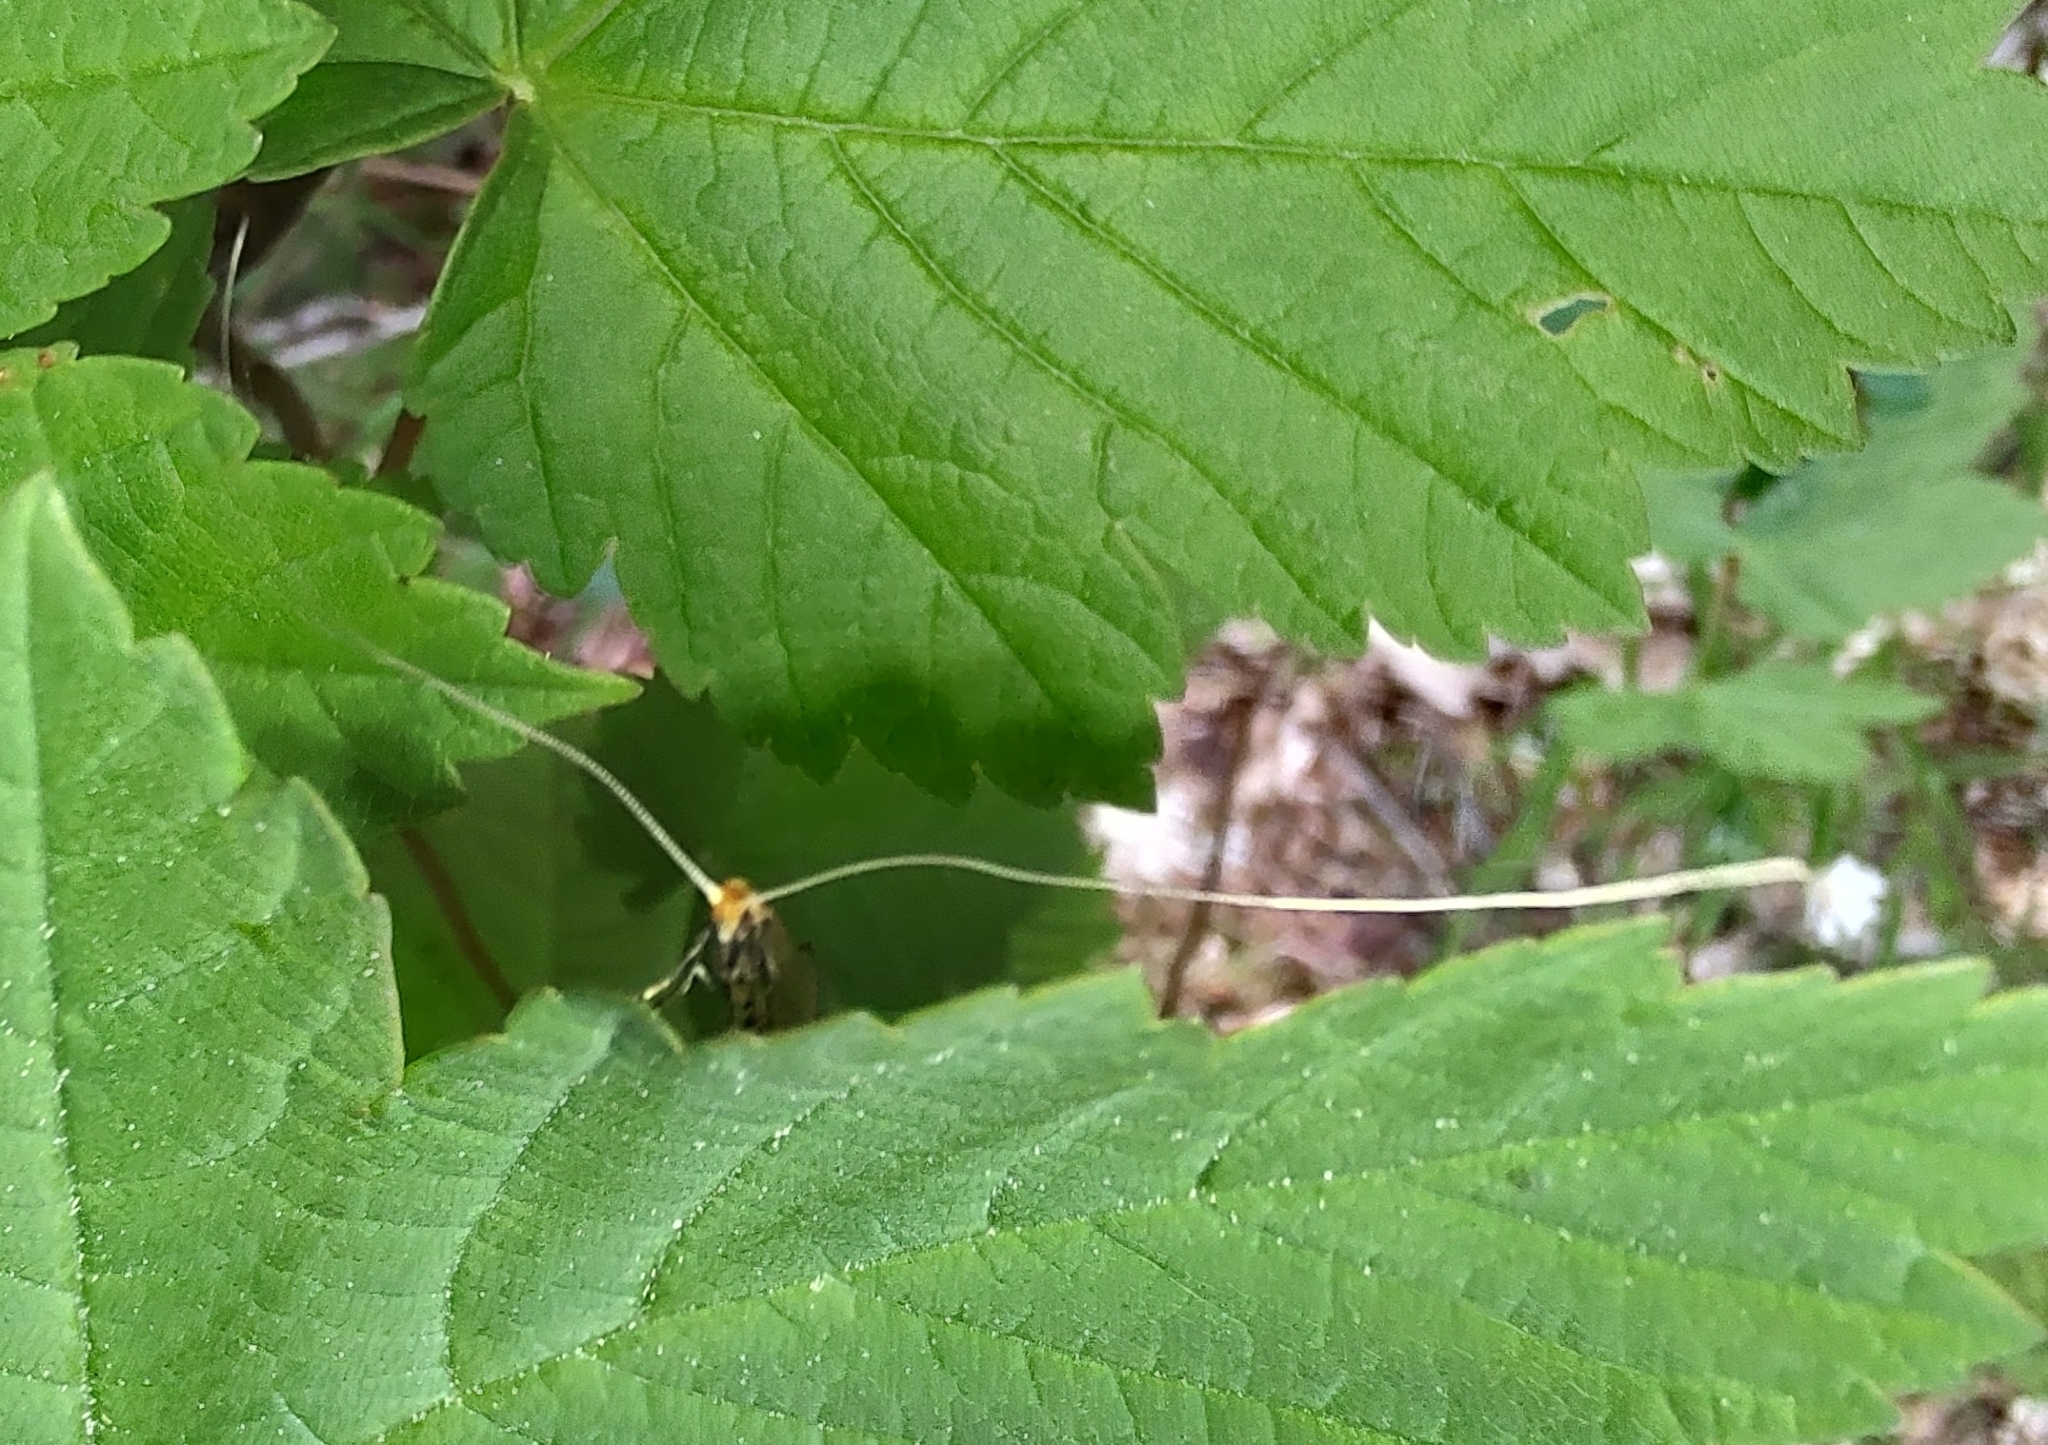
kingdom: Animalia
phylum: Arthropoda
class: Insecta
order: Lepidoptera
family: Adelidae
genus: Nematopogon
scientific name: Nematopogon adansoniella
